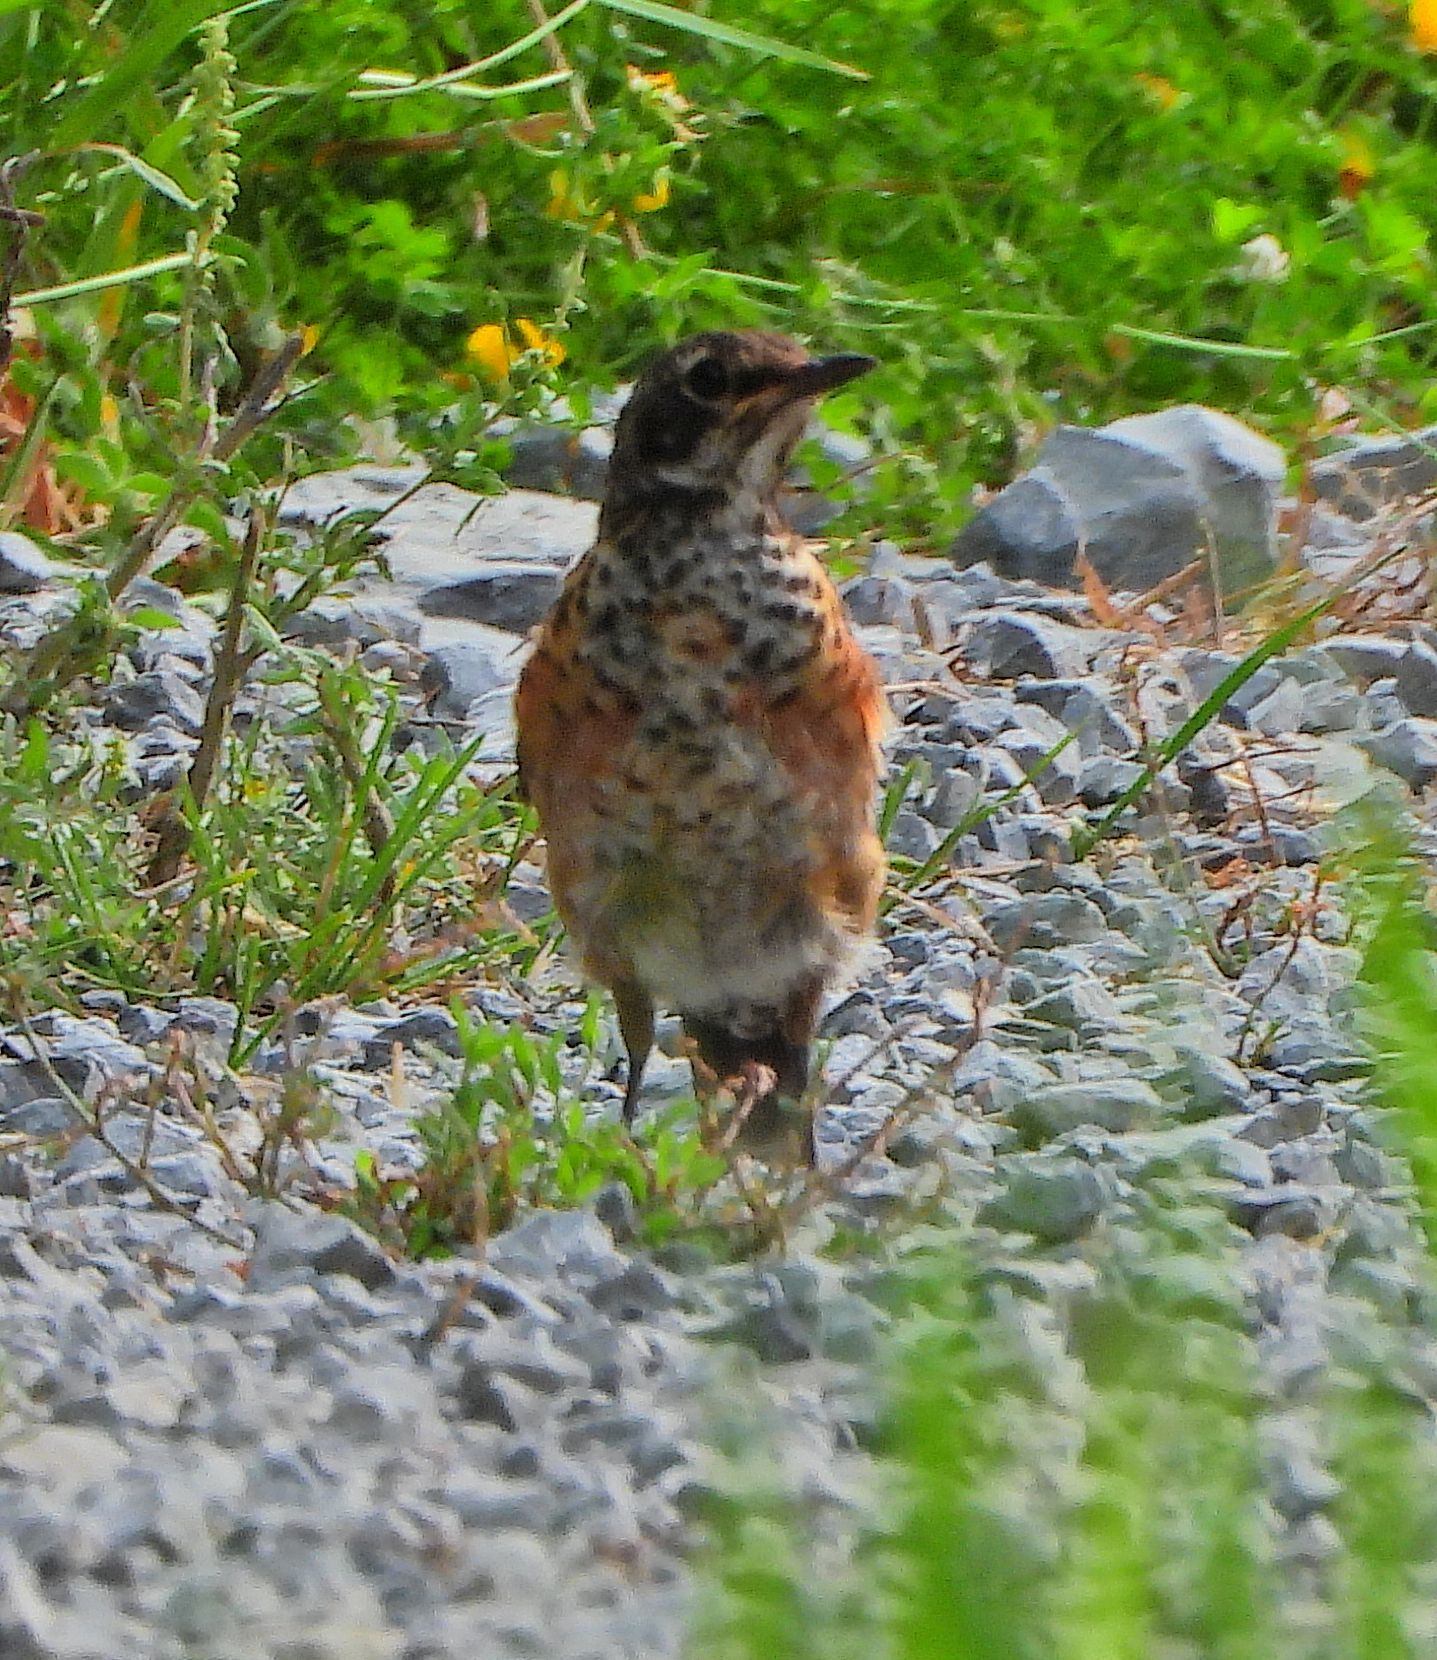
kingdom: Animalia
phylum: Chordata
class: Aves
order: Passeriformes
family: Turdidae
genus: Turdus
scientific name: Turdus migratorius
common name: American robin
